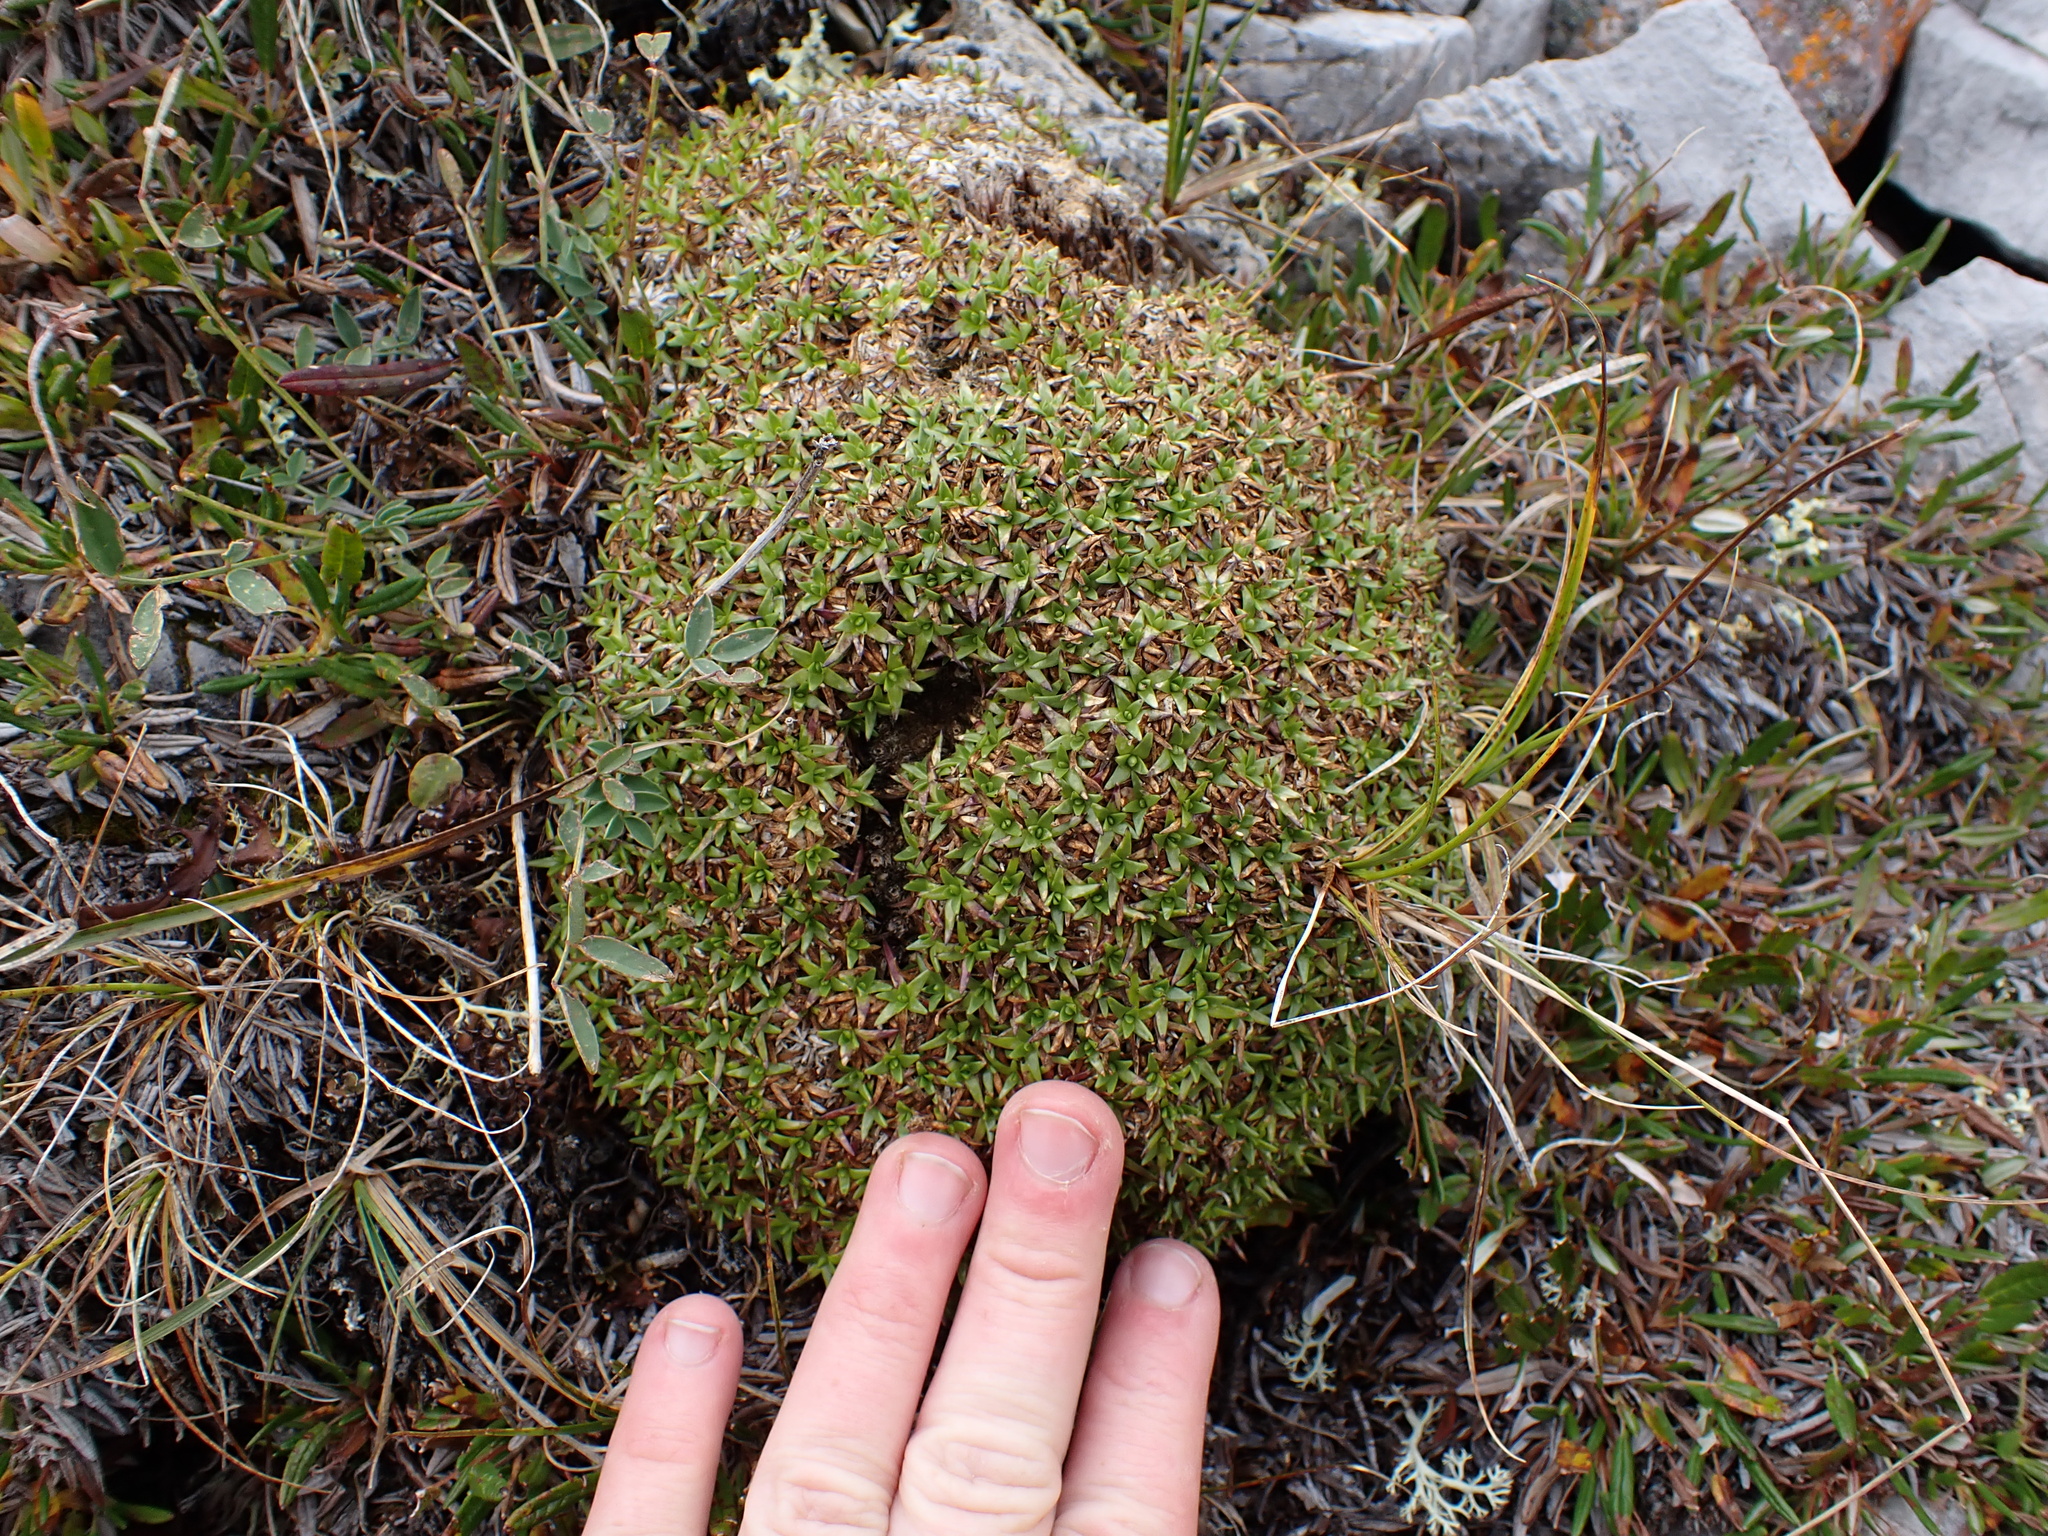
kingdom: Plantae
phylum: Tracheophyta
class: Magnoliopsida
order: Caryophyllales
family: Caryophyllaceae
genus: Silene
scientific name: Silene acaulis
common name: Moss campion
